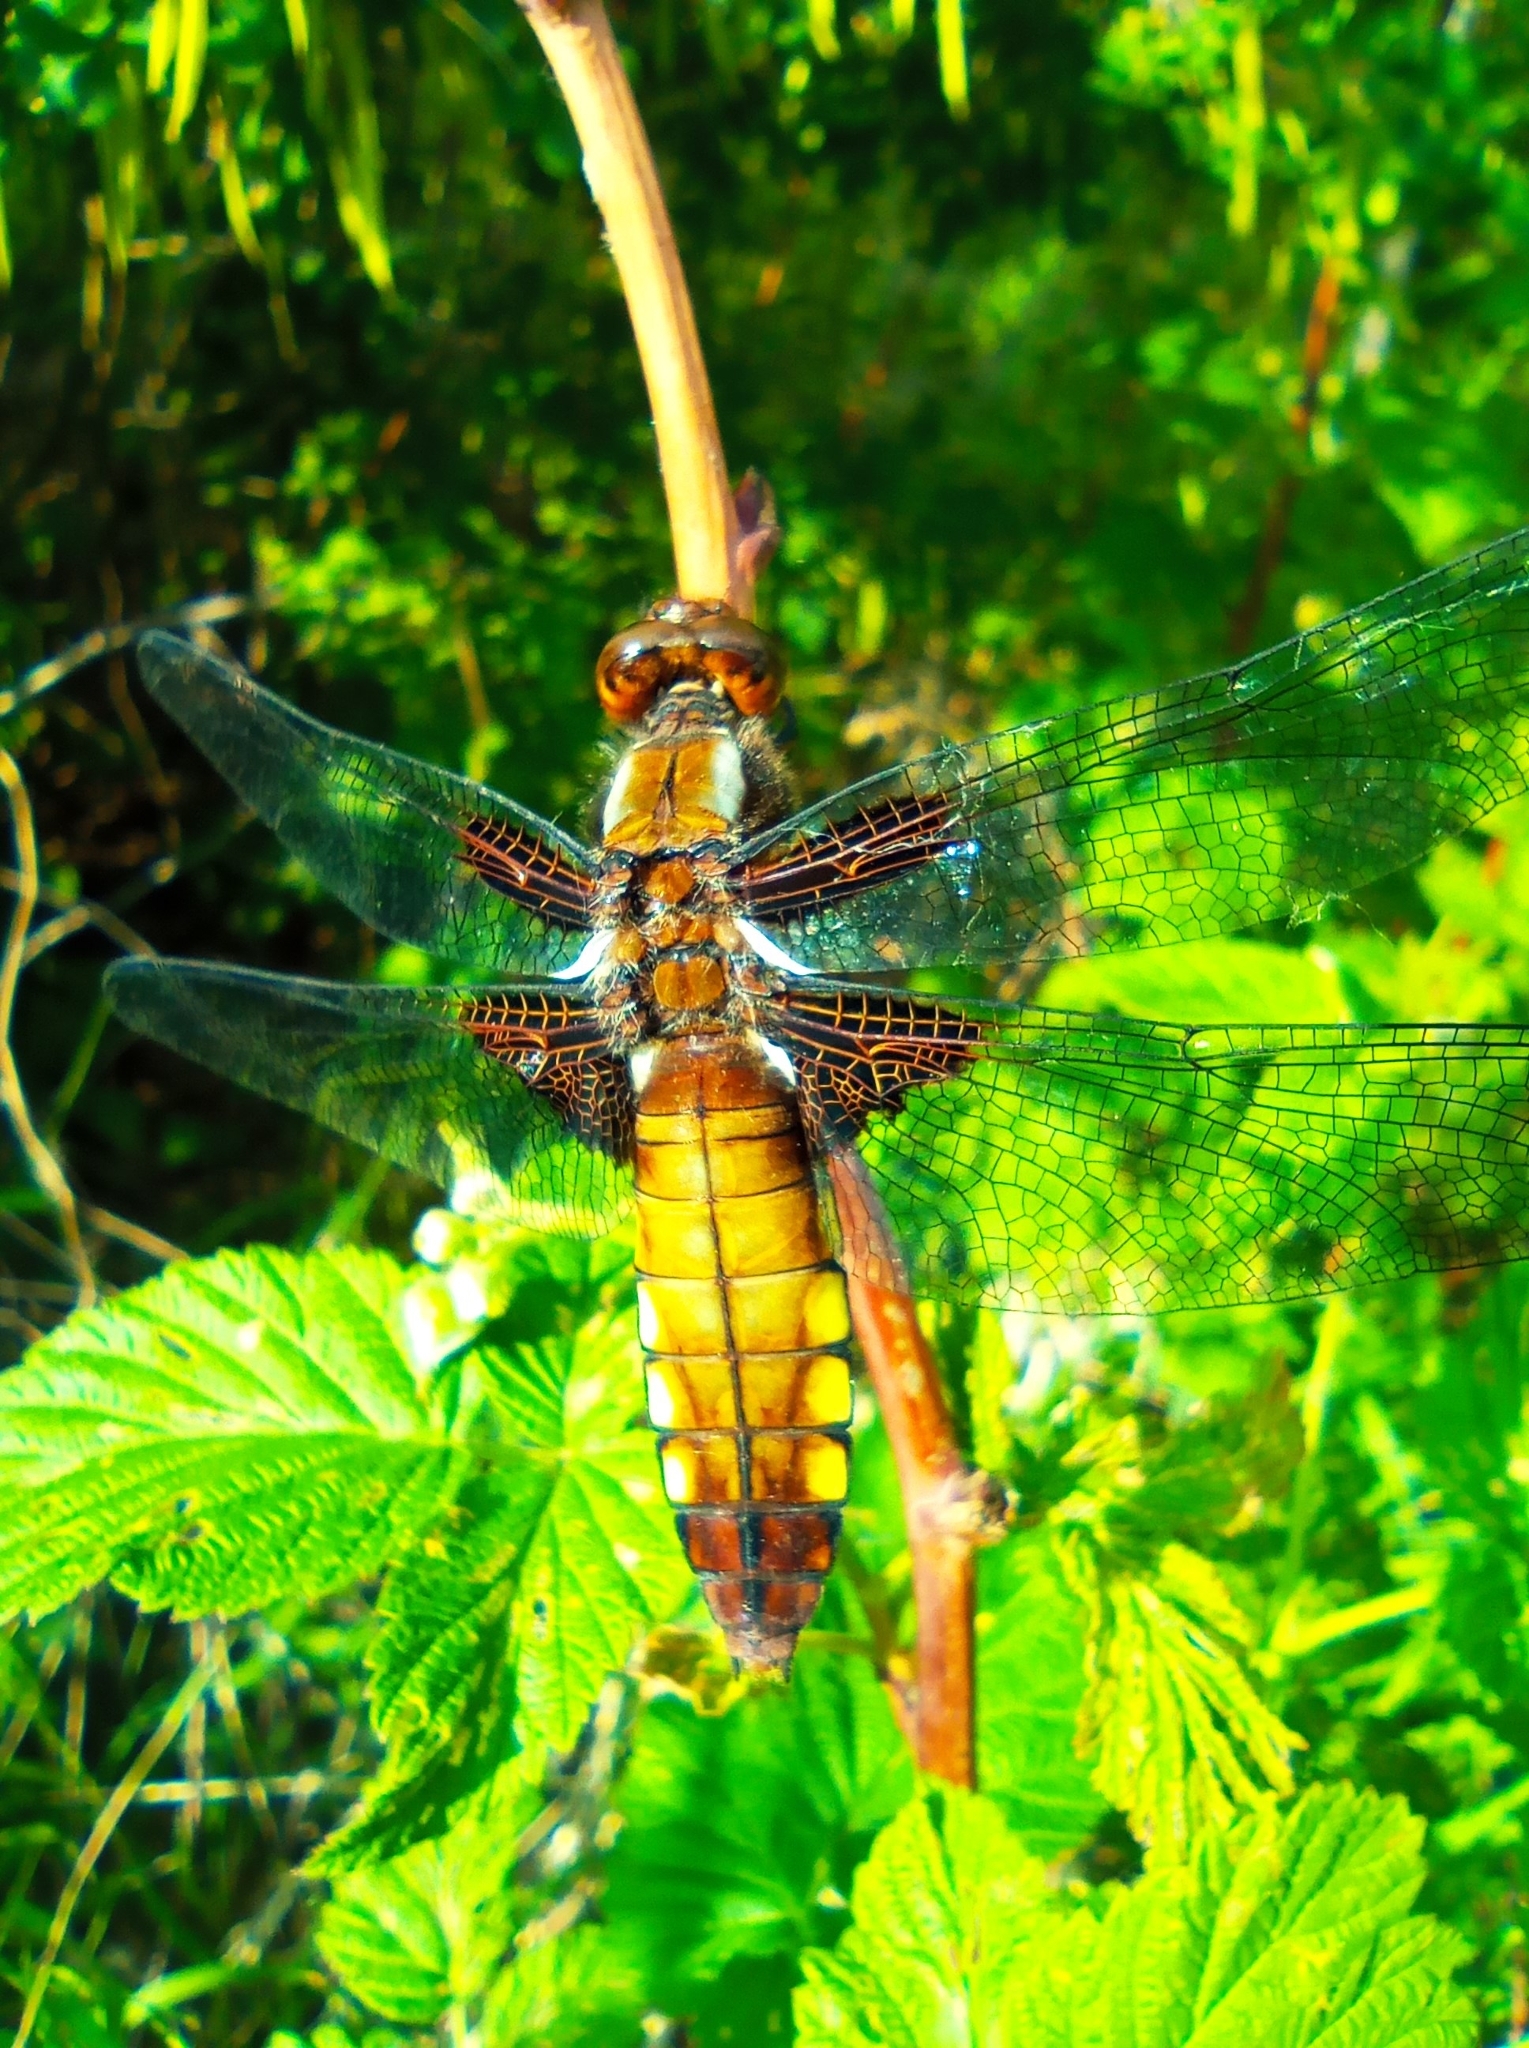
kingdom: Animalia
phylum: Arthropoda
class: Insecta
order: Odonata
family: Libellulidae
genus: Libellula
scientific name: Libellula depressa
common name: Broad-bodied chaser
